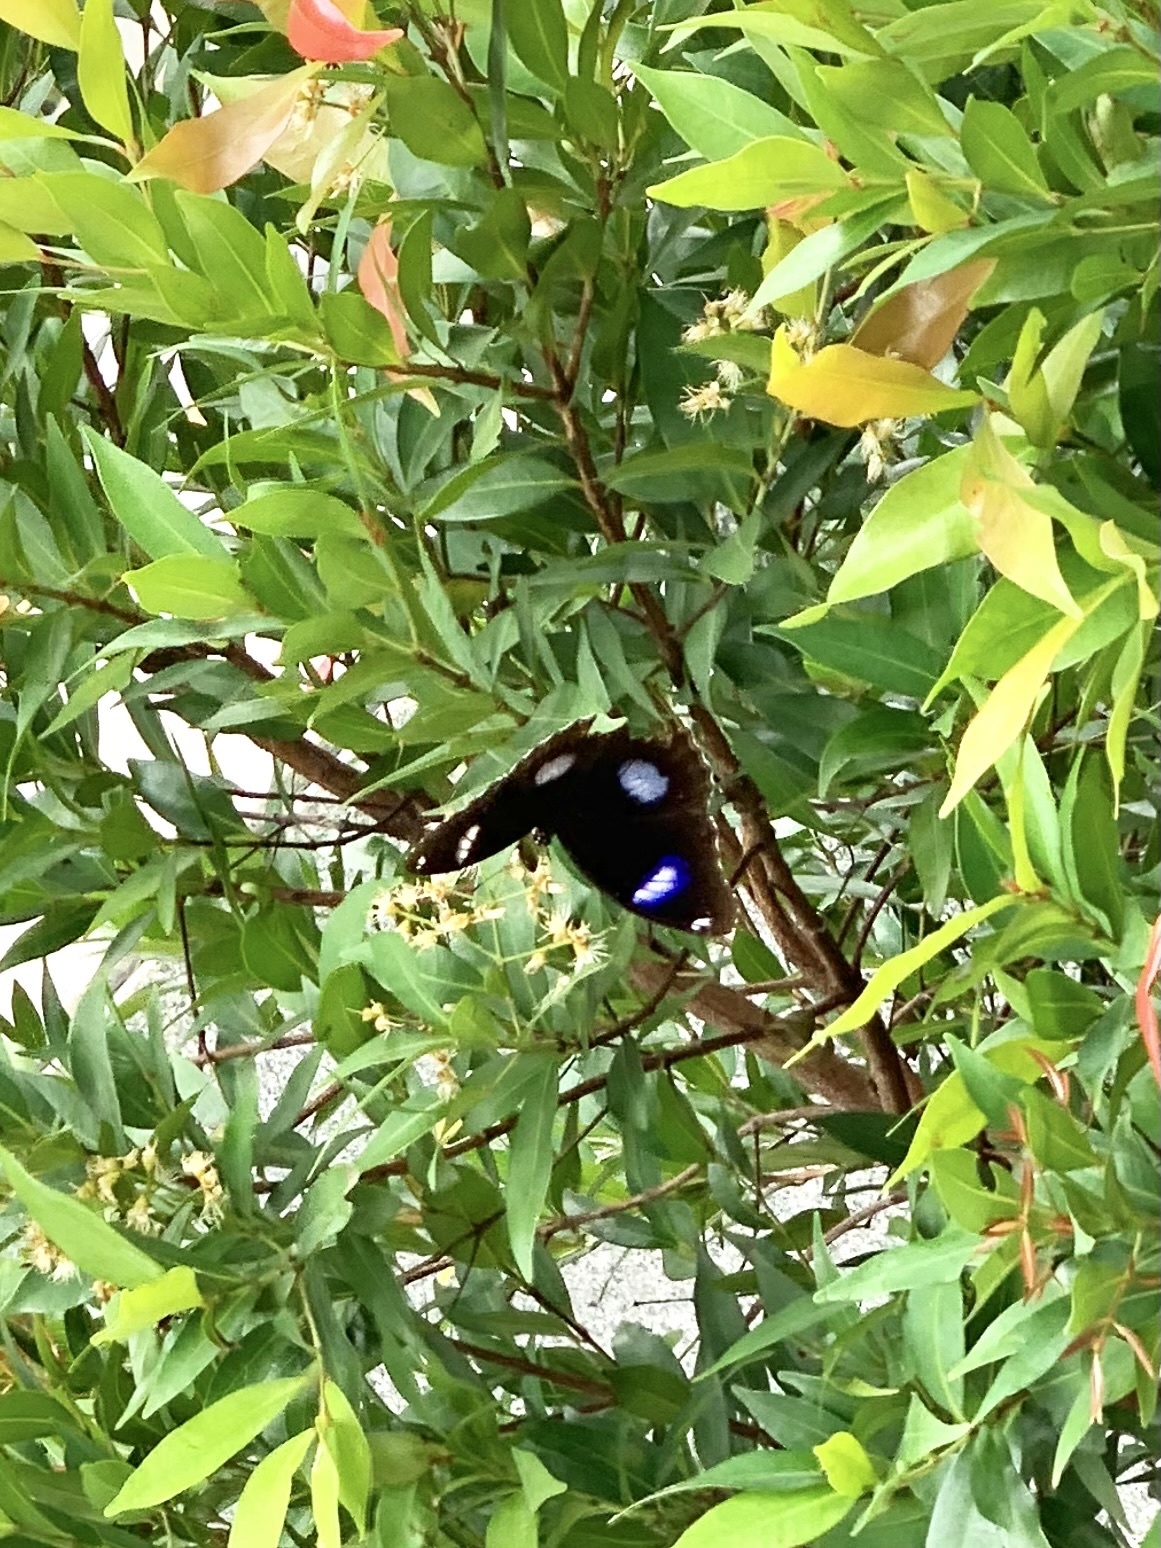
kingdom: Animalia
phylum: Arthropoda
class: Insecta
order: Lepidoptera
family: Nymphalidae
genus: Hypolimnas
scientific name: Hypolimnas bolina
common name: Great eggfly
